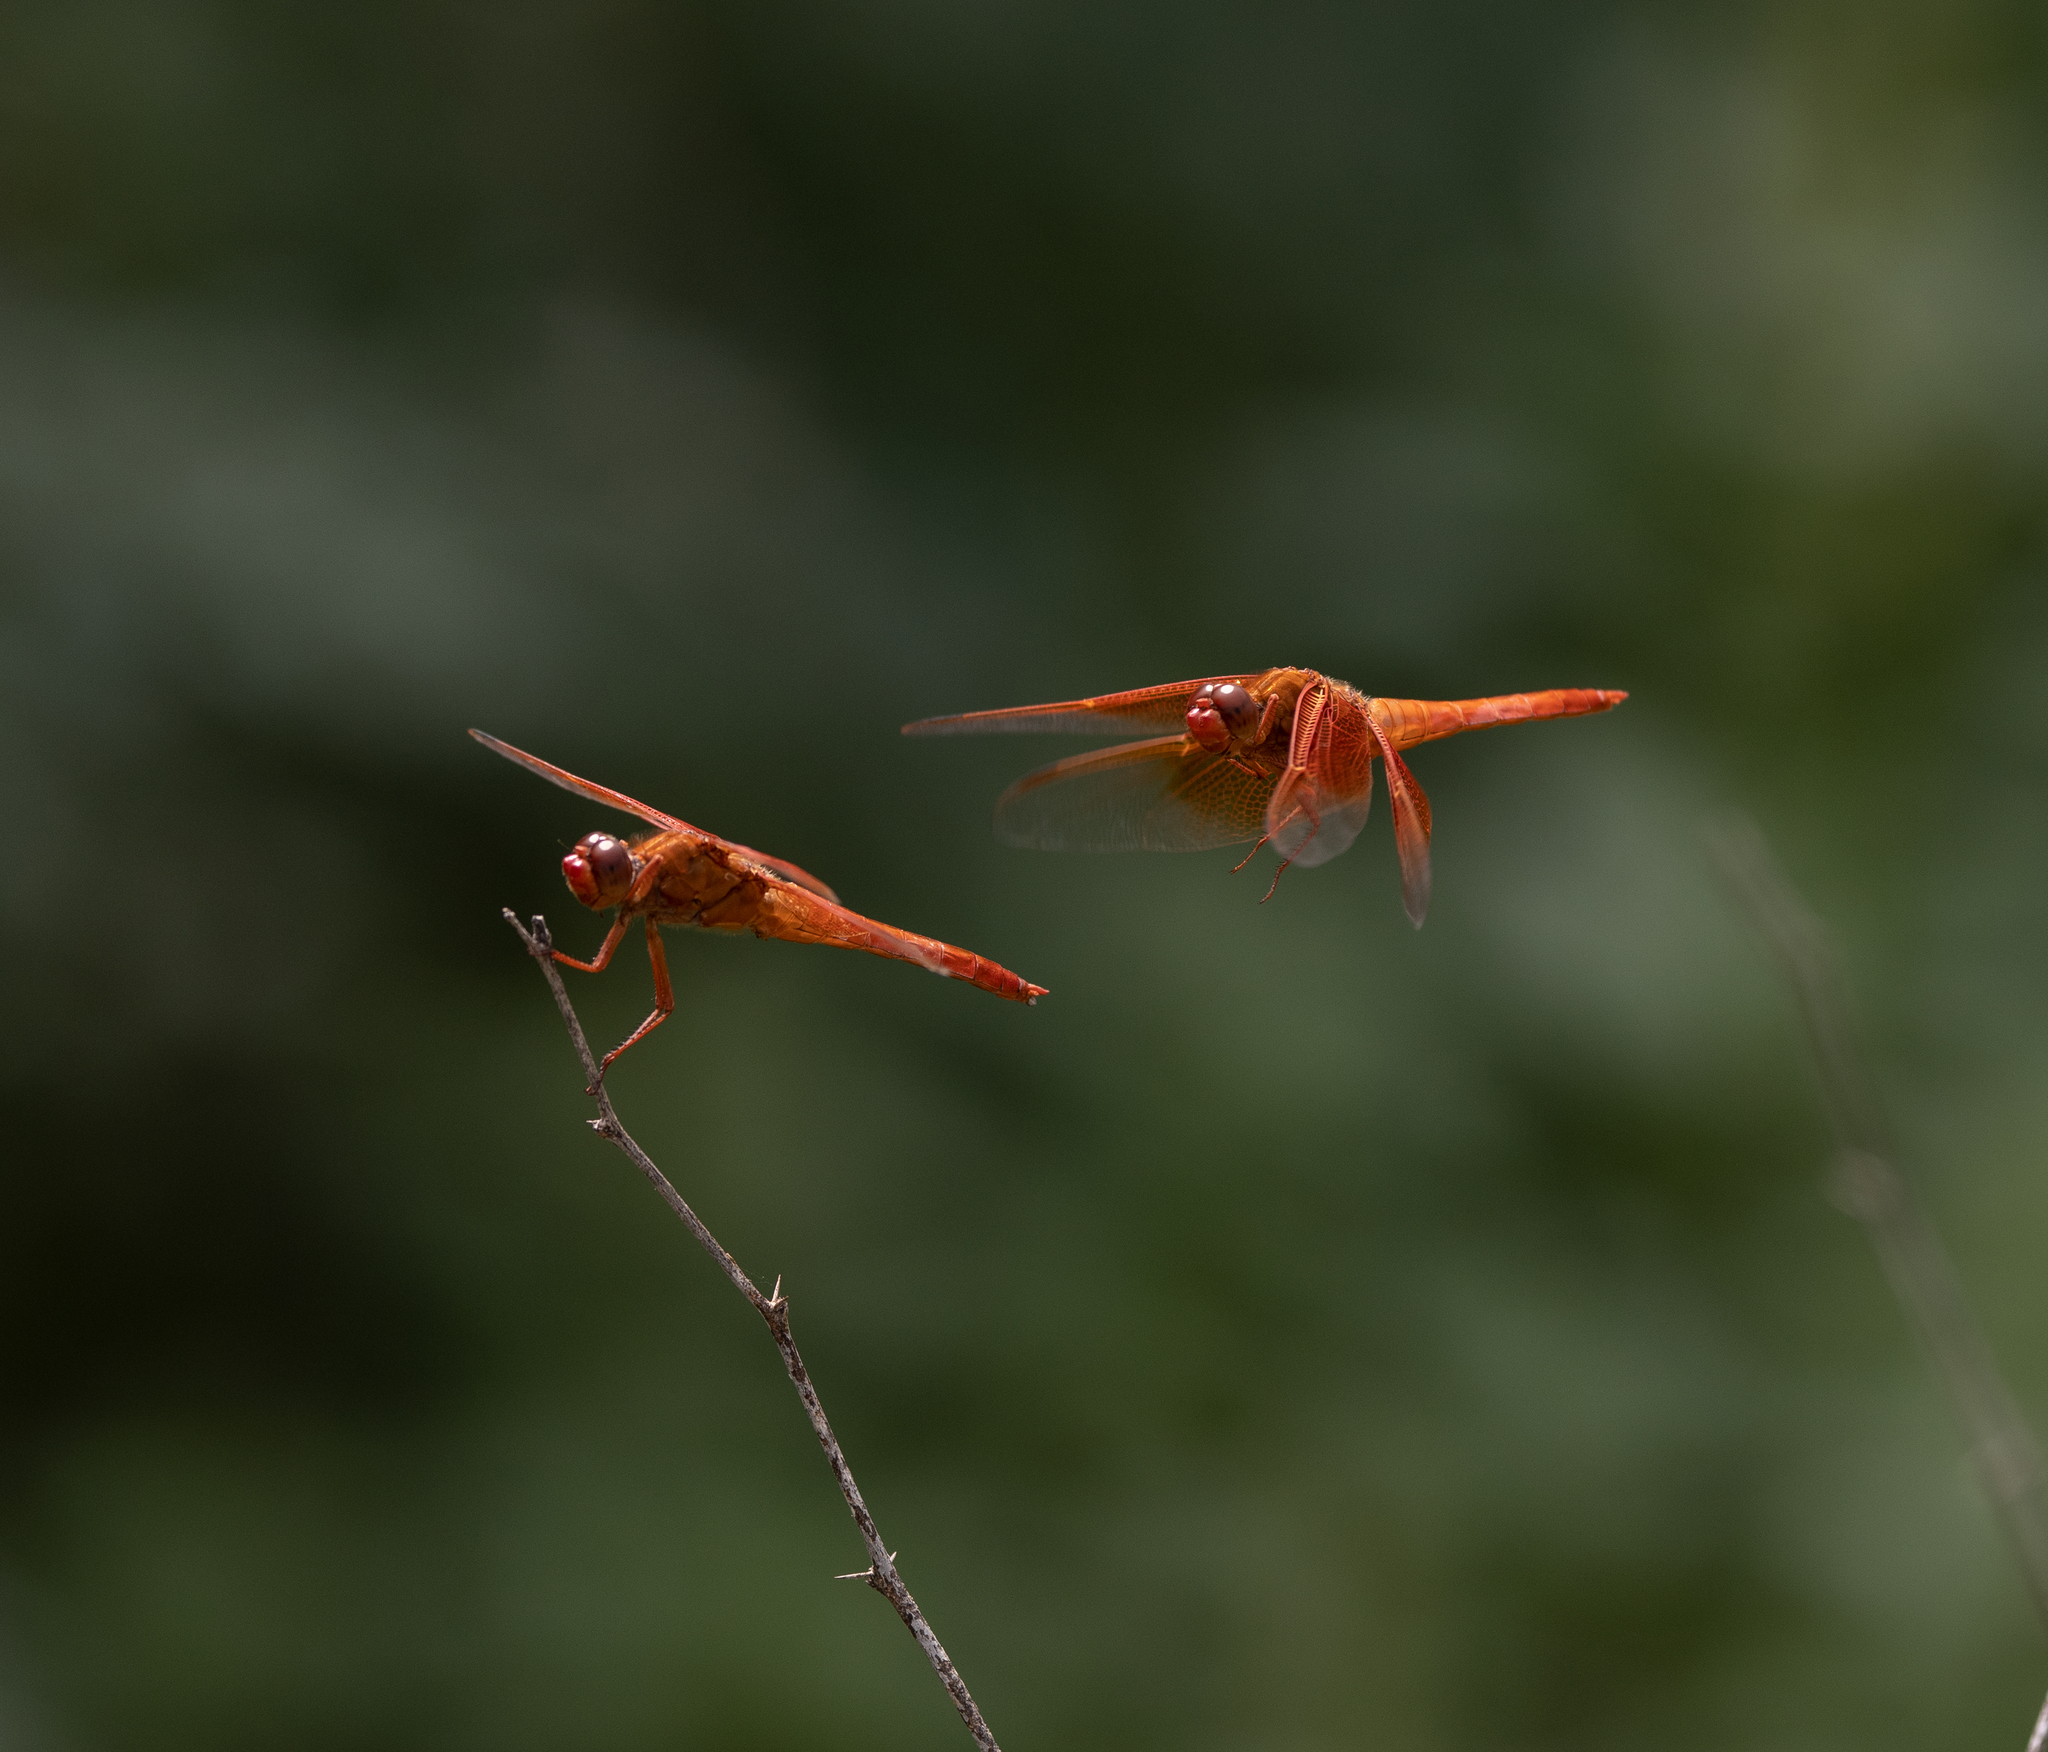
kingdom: Animalia
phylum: Arthropoda
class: Insecta
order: Odonata
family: Libellulidae
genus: Libellula
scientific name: Libellula saturata
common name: Flame skimmer
